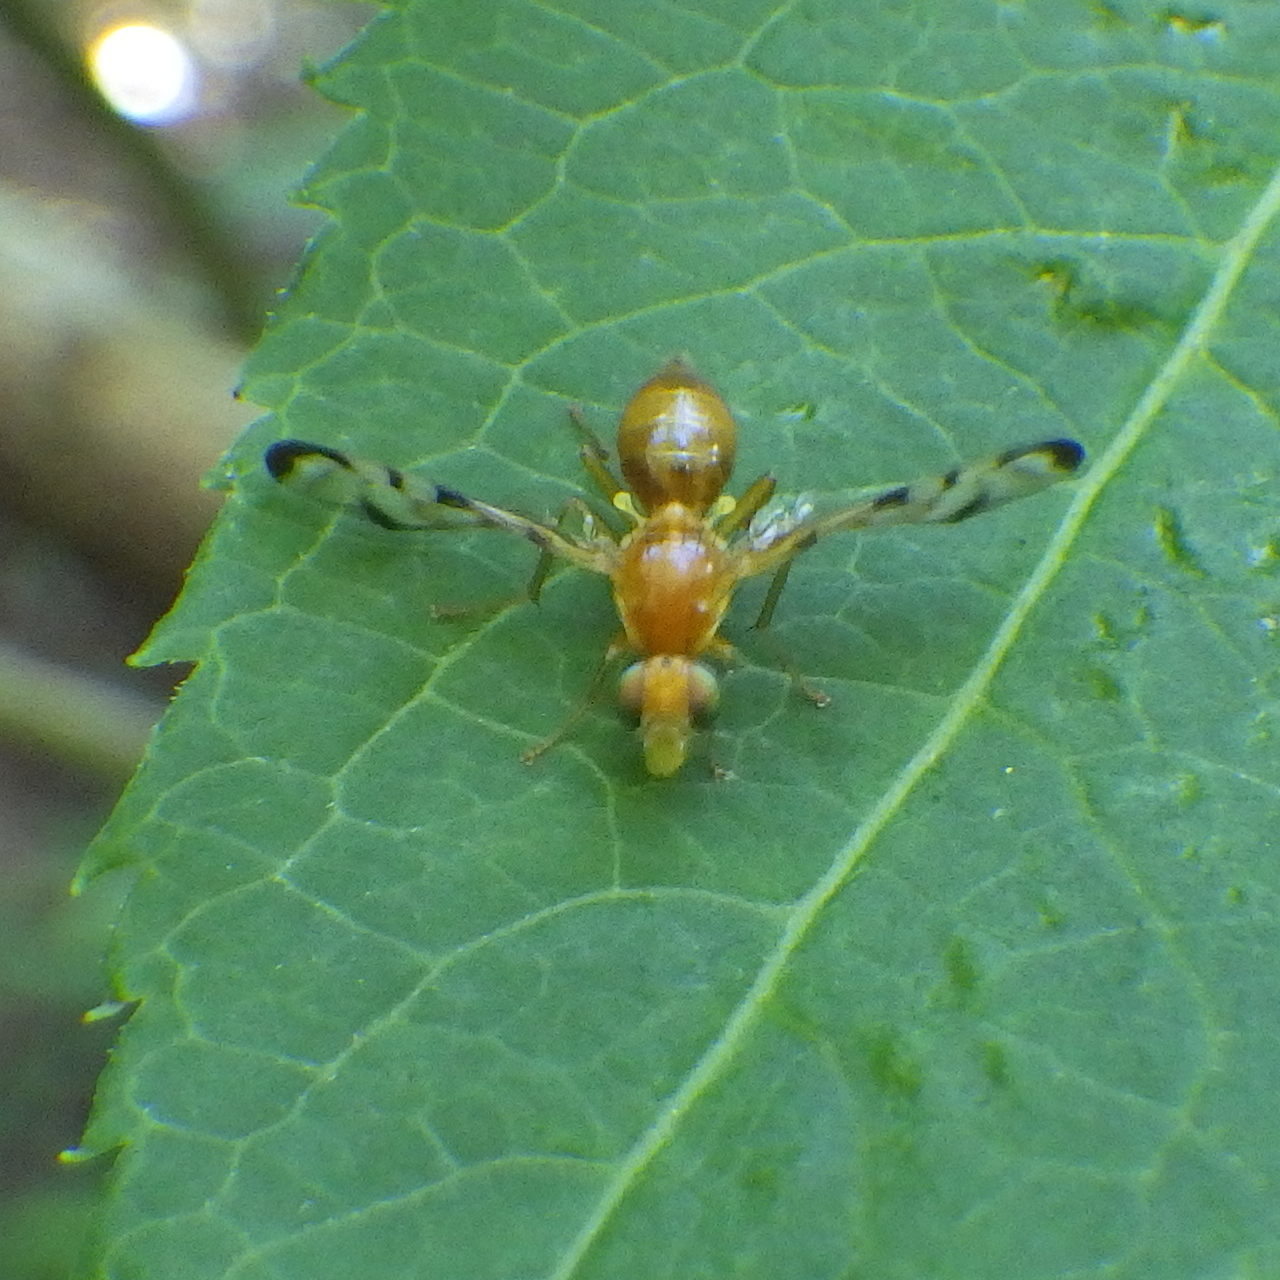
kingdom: Animalia
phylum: Arthropoda
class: Insecta
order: Diptera
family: Tephritidae
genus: Acidia
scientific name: Acidia cognata
